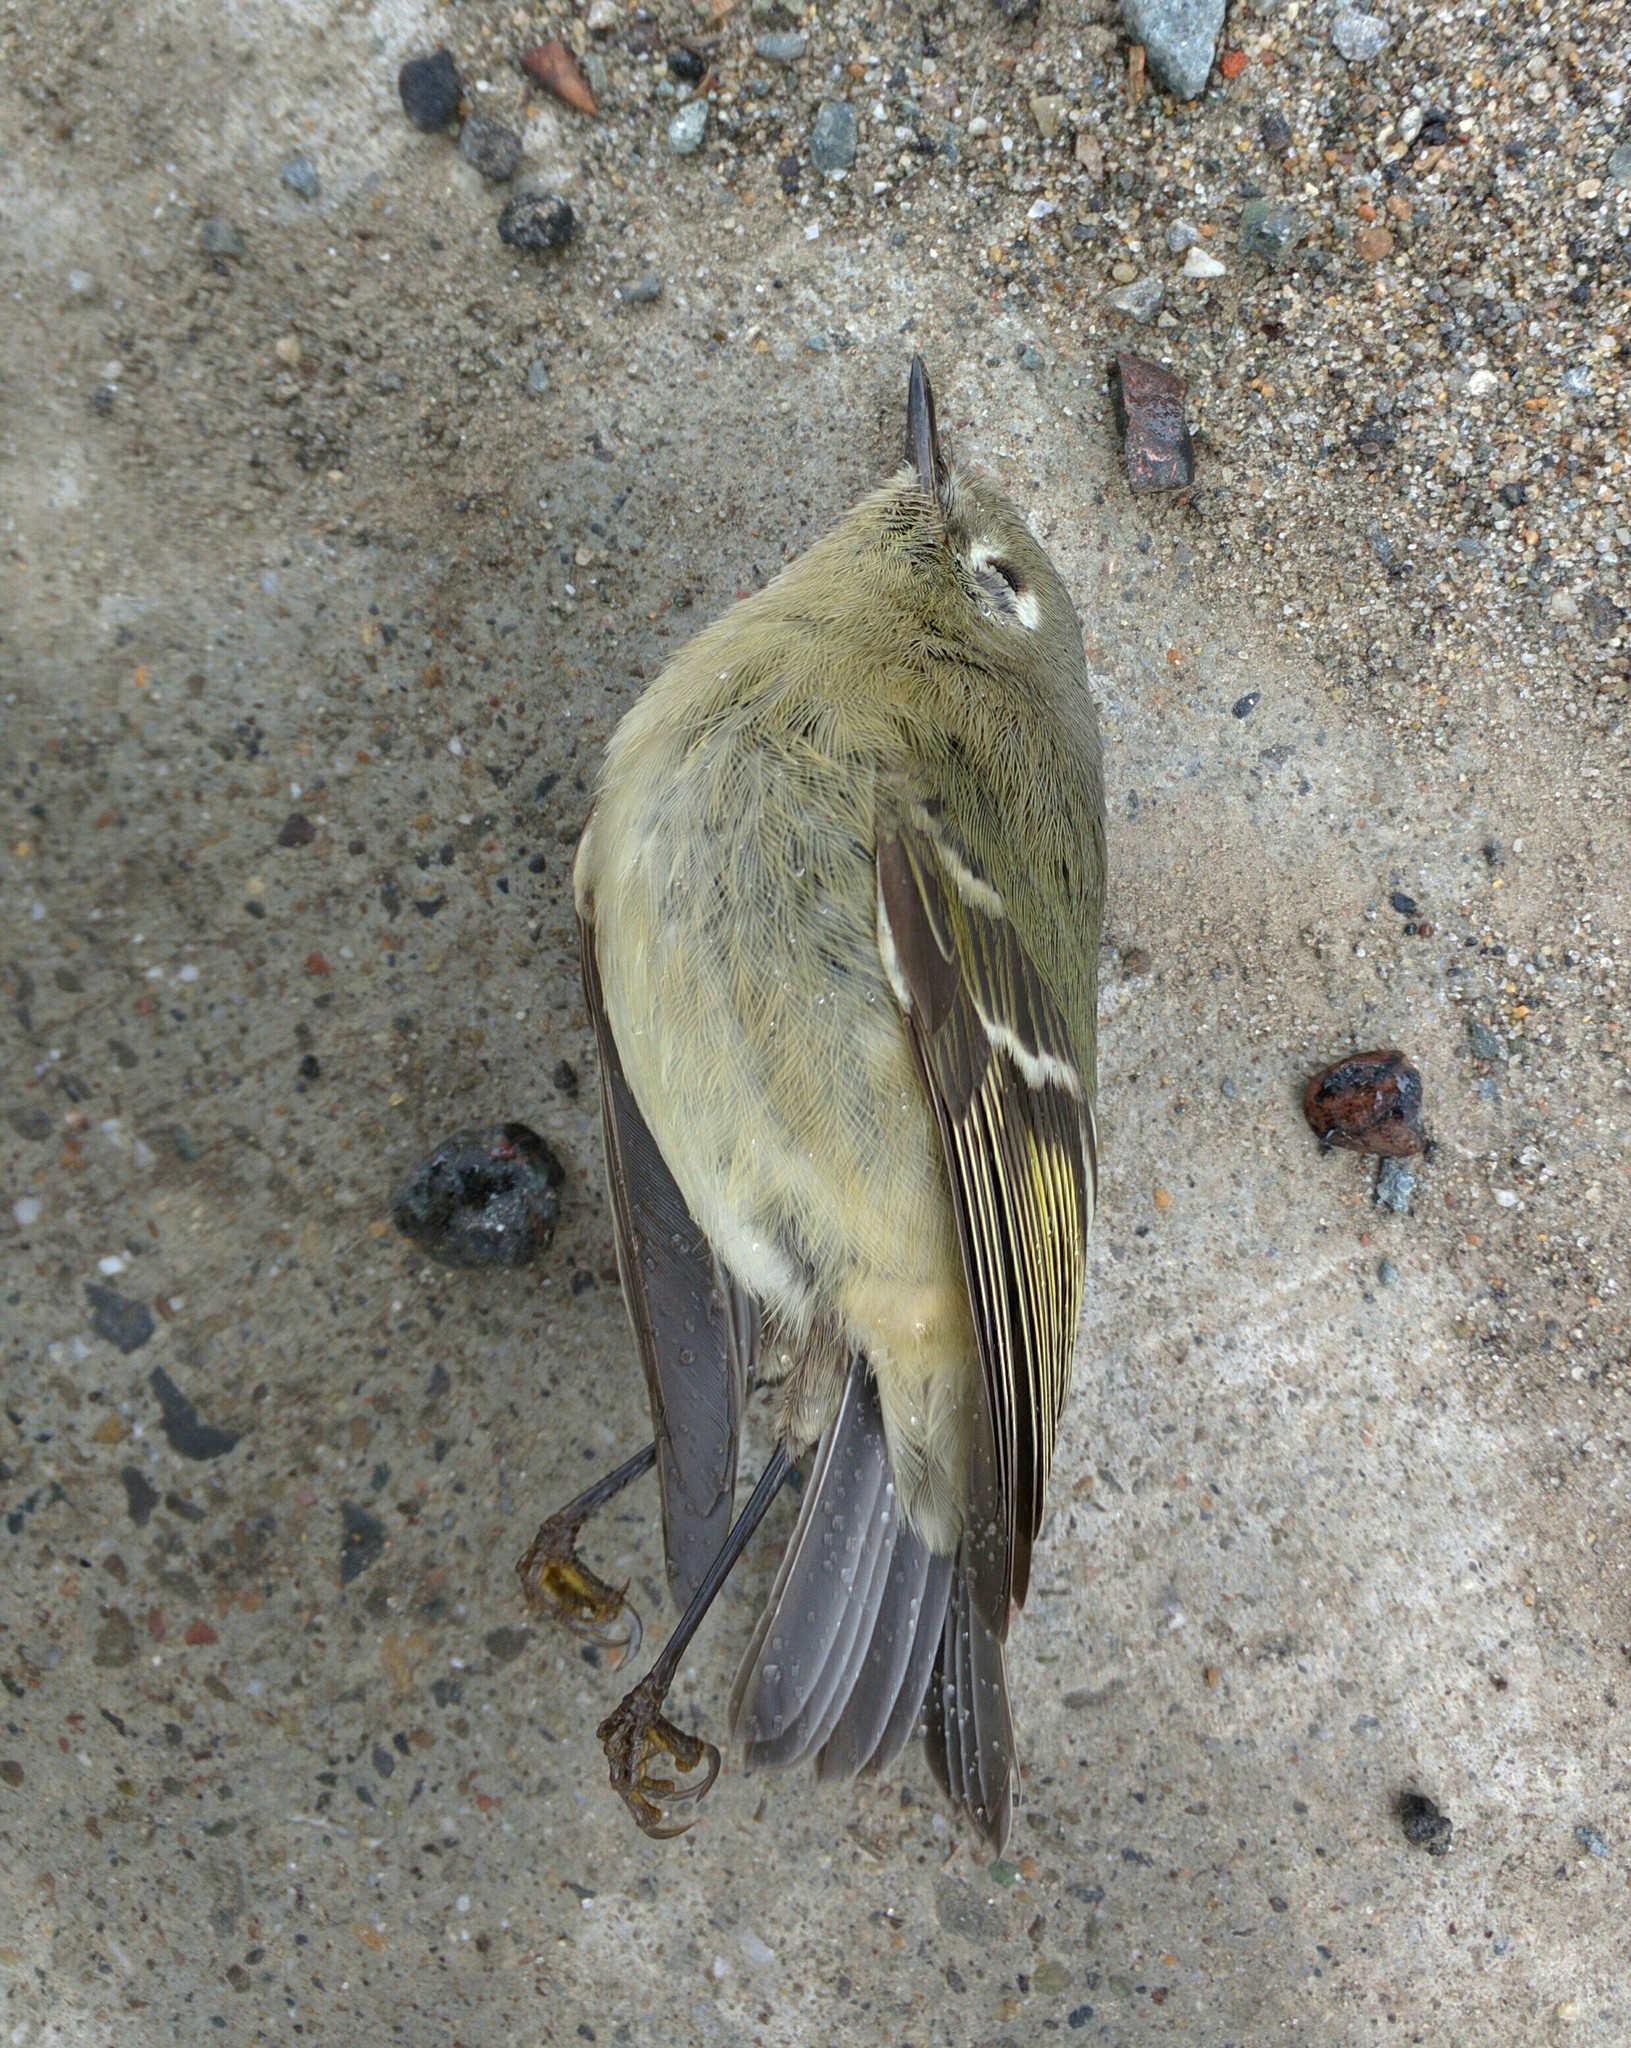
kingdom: Animalia
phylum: Chordata
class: Aves
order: Passeriformes
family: Regulidae
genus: Regulus
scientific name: Regulus calendula
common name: Ruby-crowned kinglet
